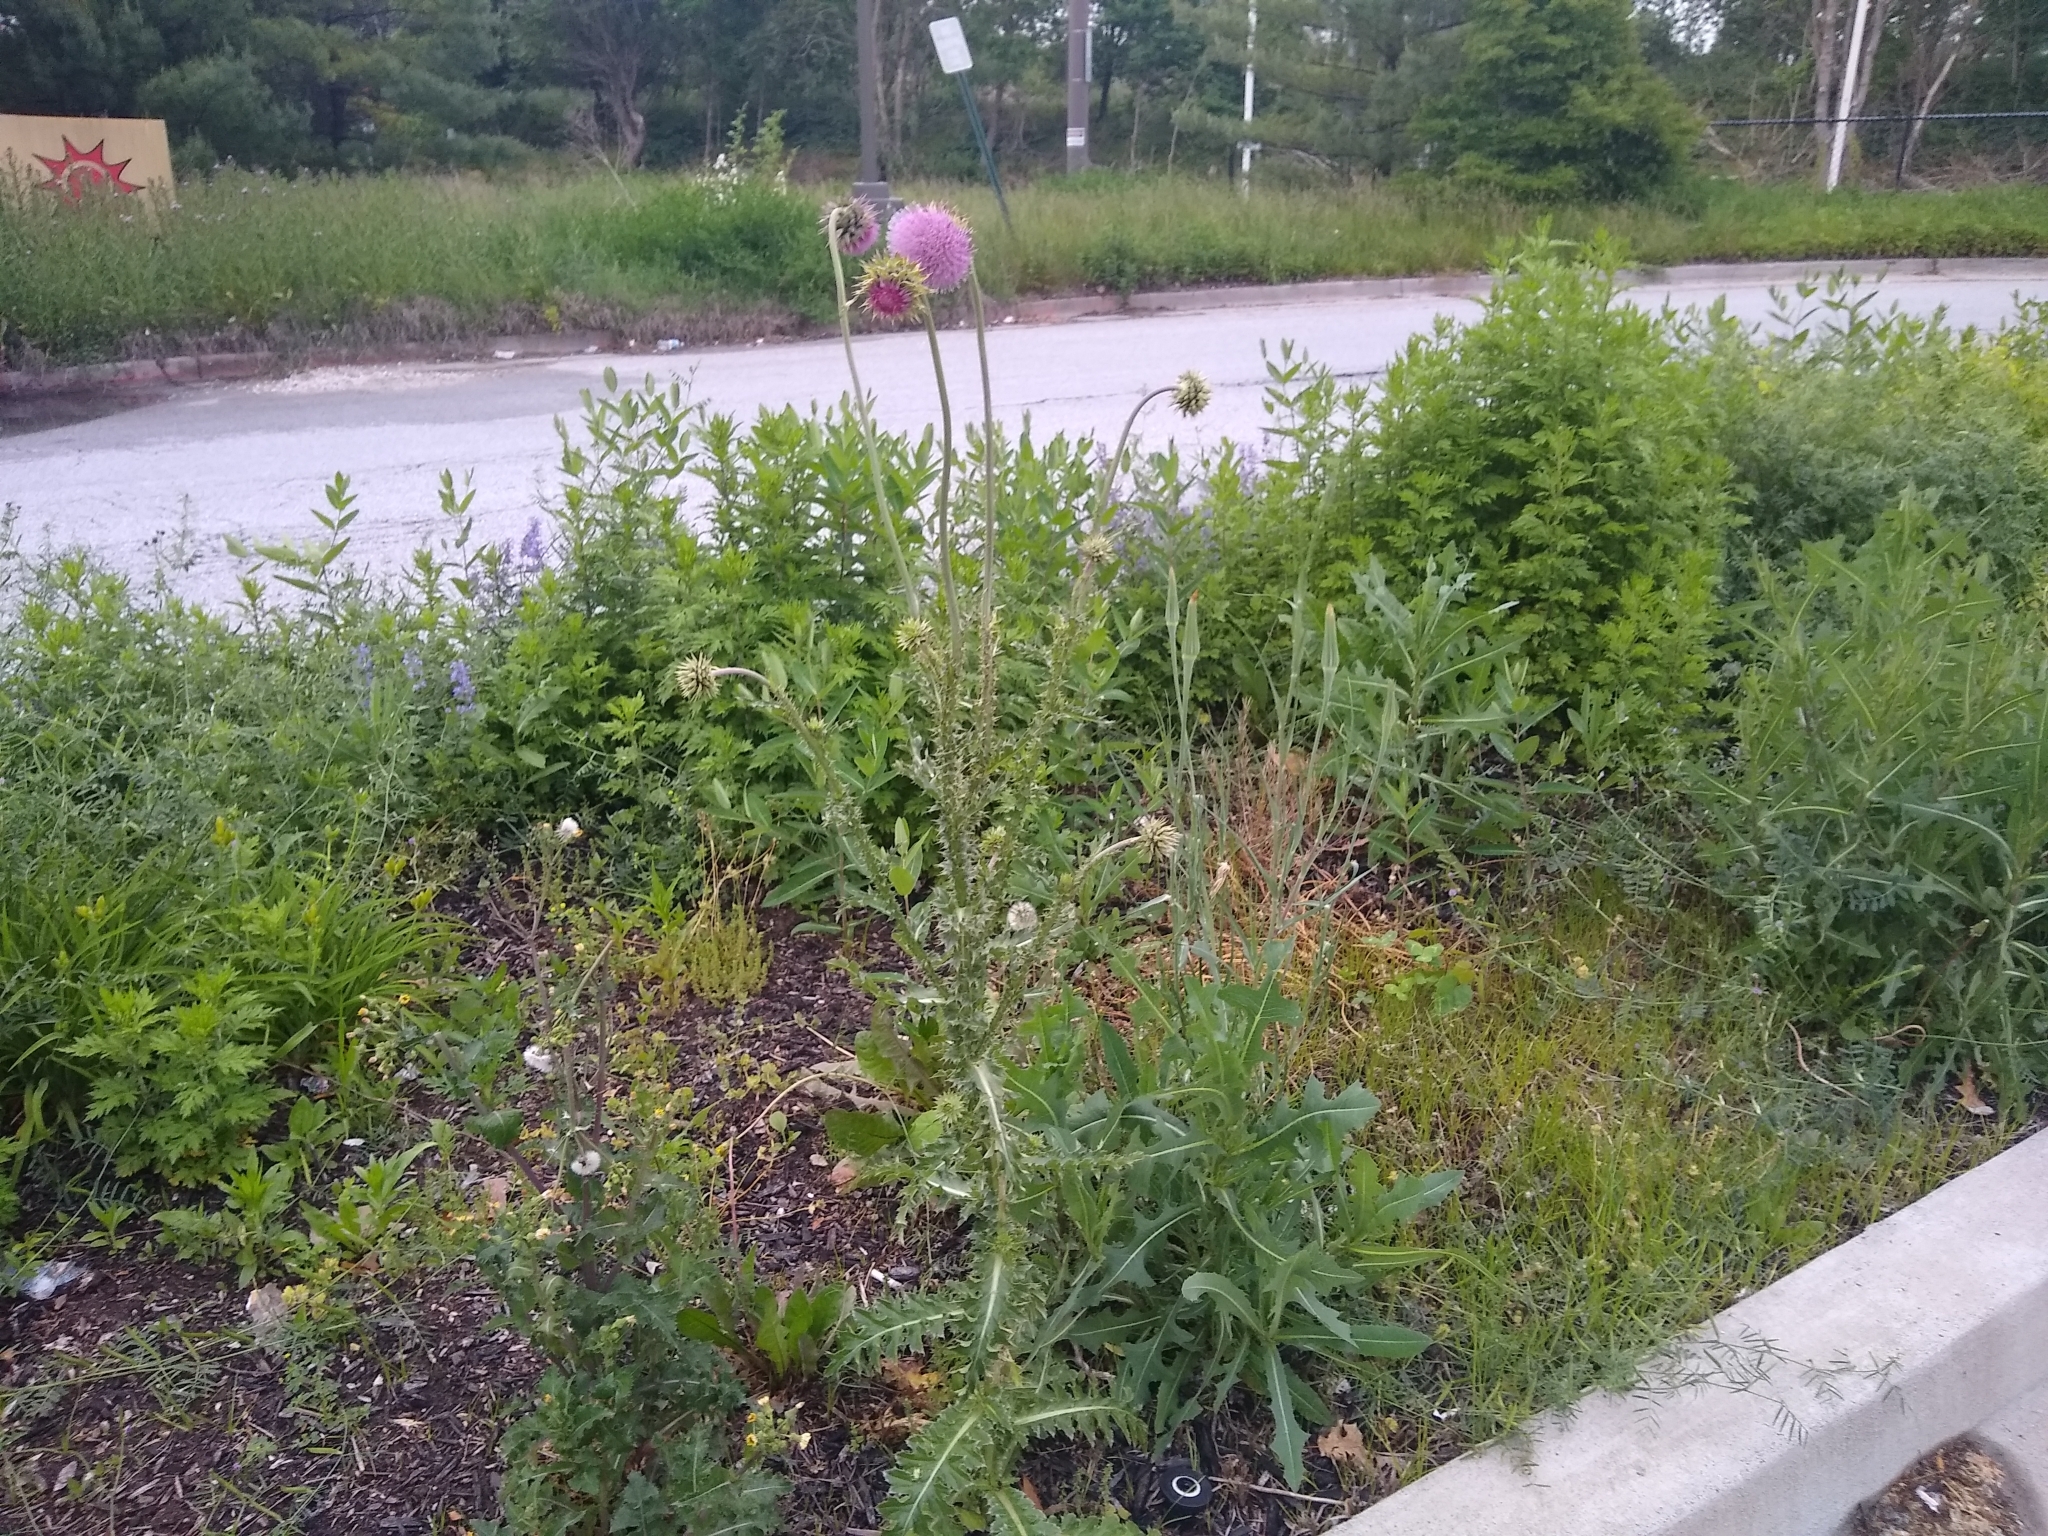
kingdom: Plantae
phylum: Tracheophyta
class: Magnoliopsida
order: Asterales
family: Asteraceae
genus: Carduus
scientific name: Carduus nutans
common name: Musk thistle
